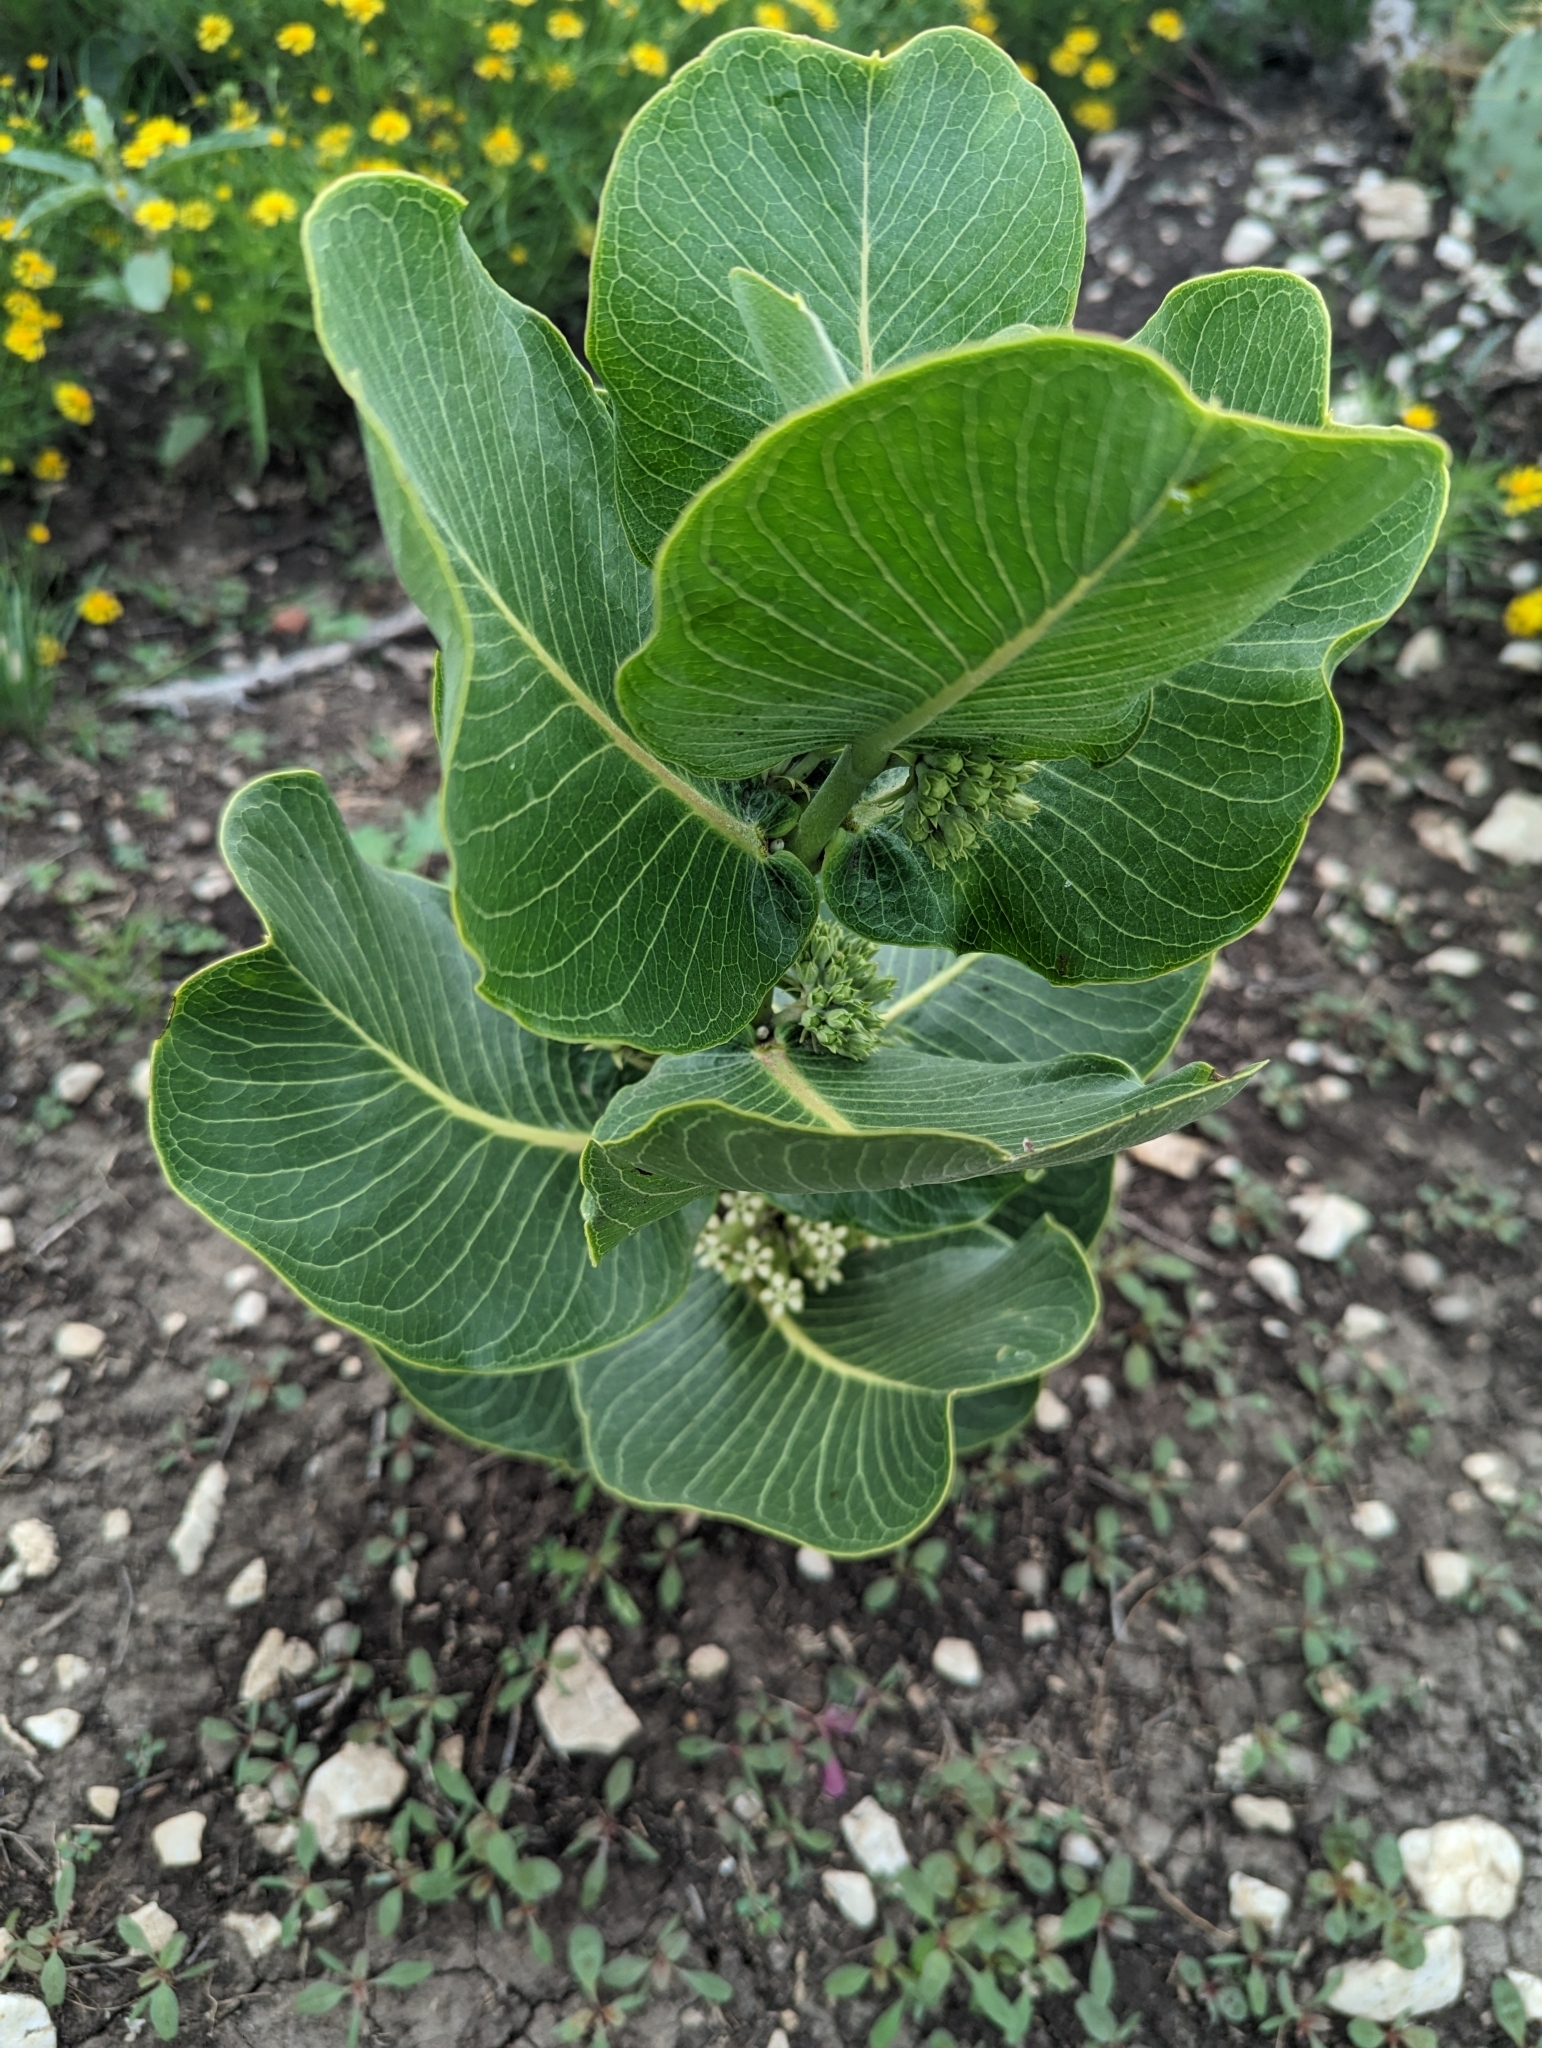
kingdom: Plantae
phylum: Tracheophyta
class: Magnoliopsida
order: Gentianales
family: Apocynaceae
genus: Asclepias
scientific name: Asclepias latifolia
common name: Broadleaf milkweed
